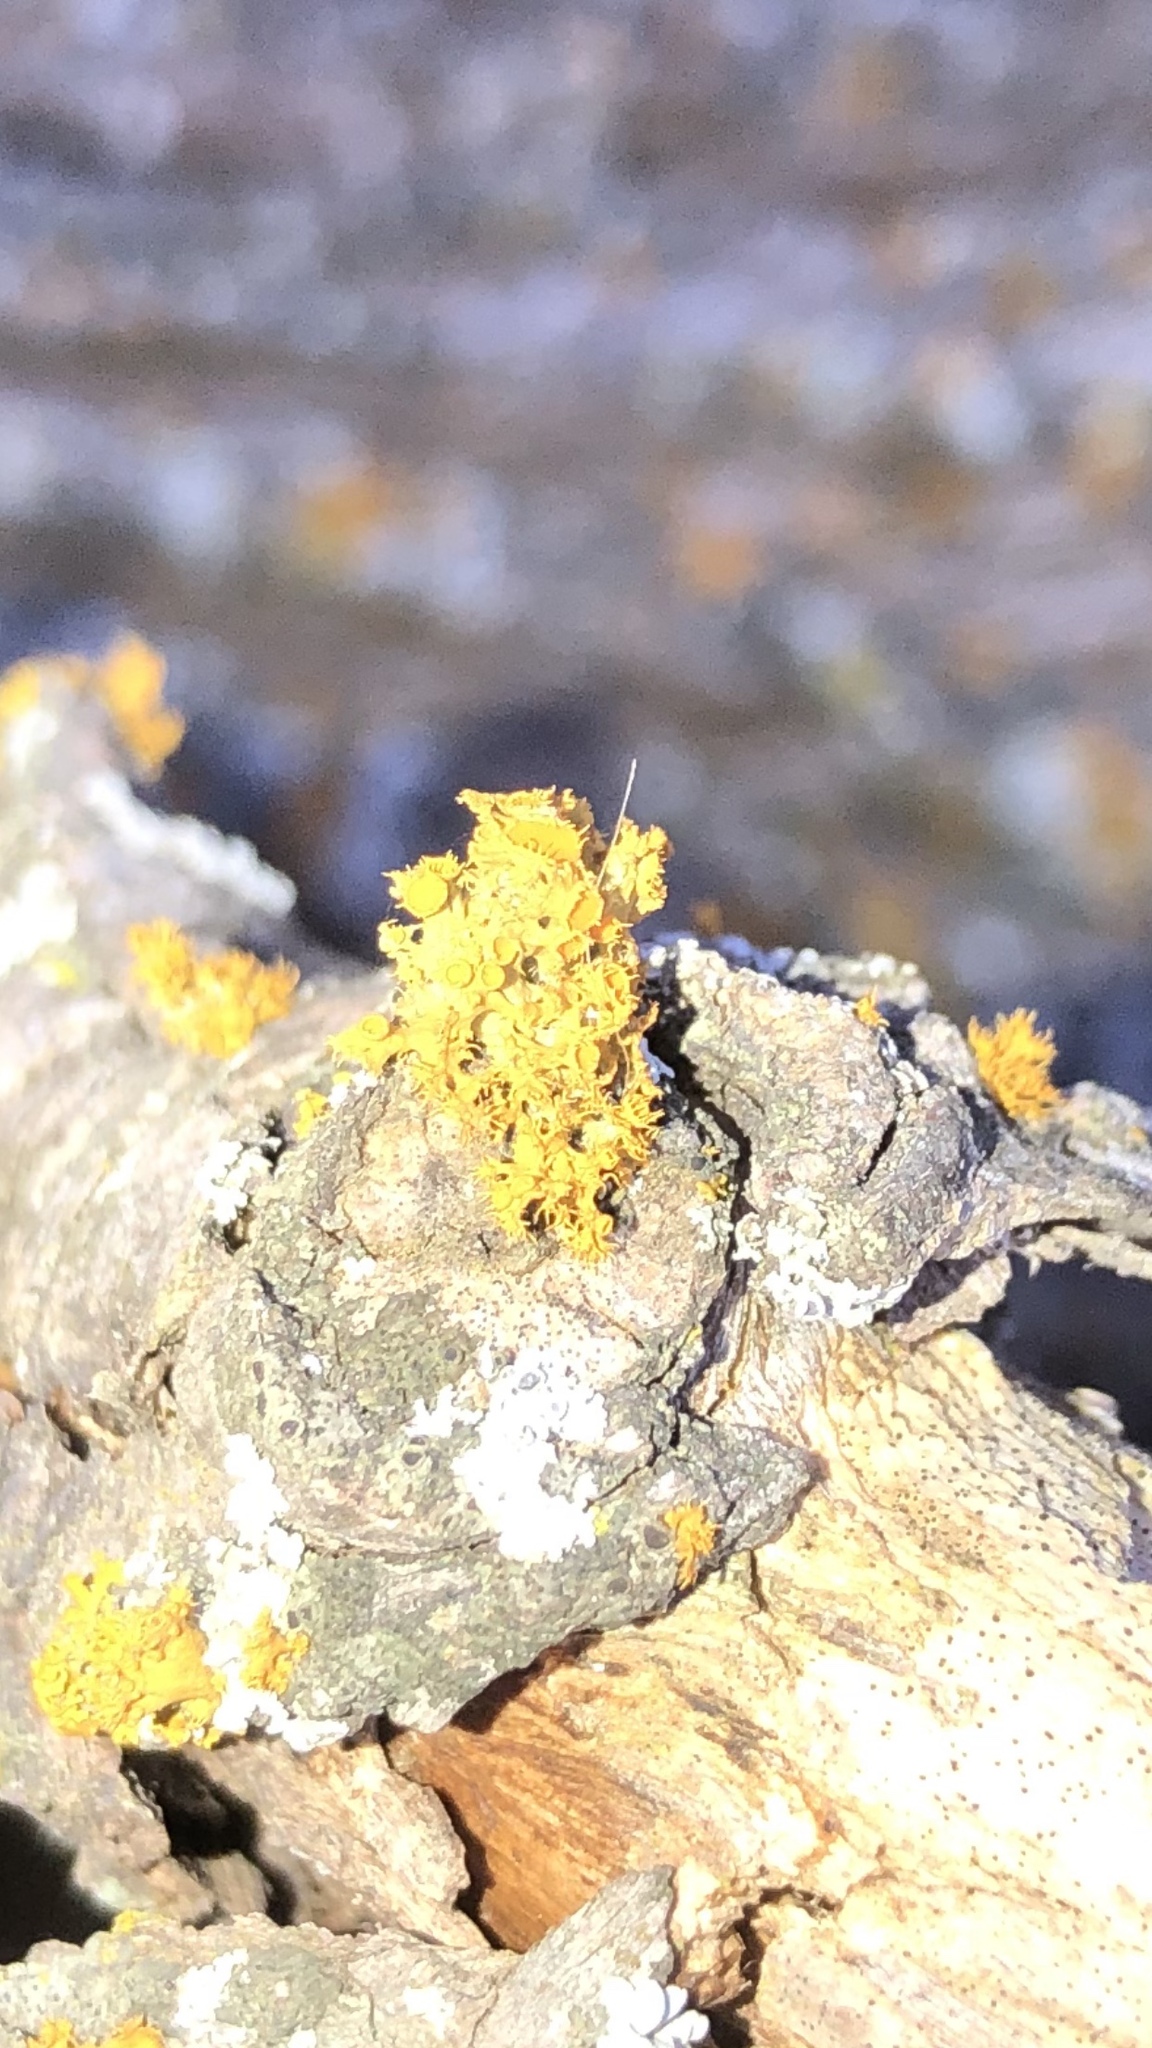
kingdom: Fungi
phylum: Ascomycota
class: Lecanoromycetes
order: Teloschistales
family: Teloschistaceae
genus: Niorma
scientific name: Niorma chrysophthalma
